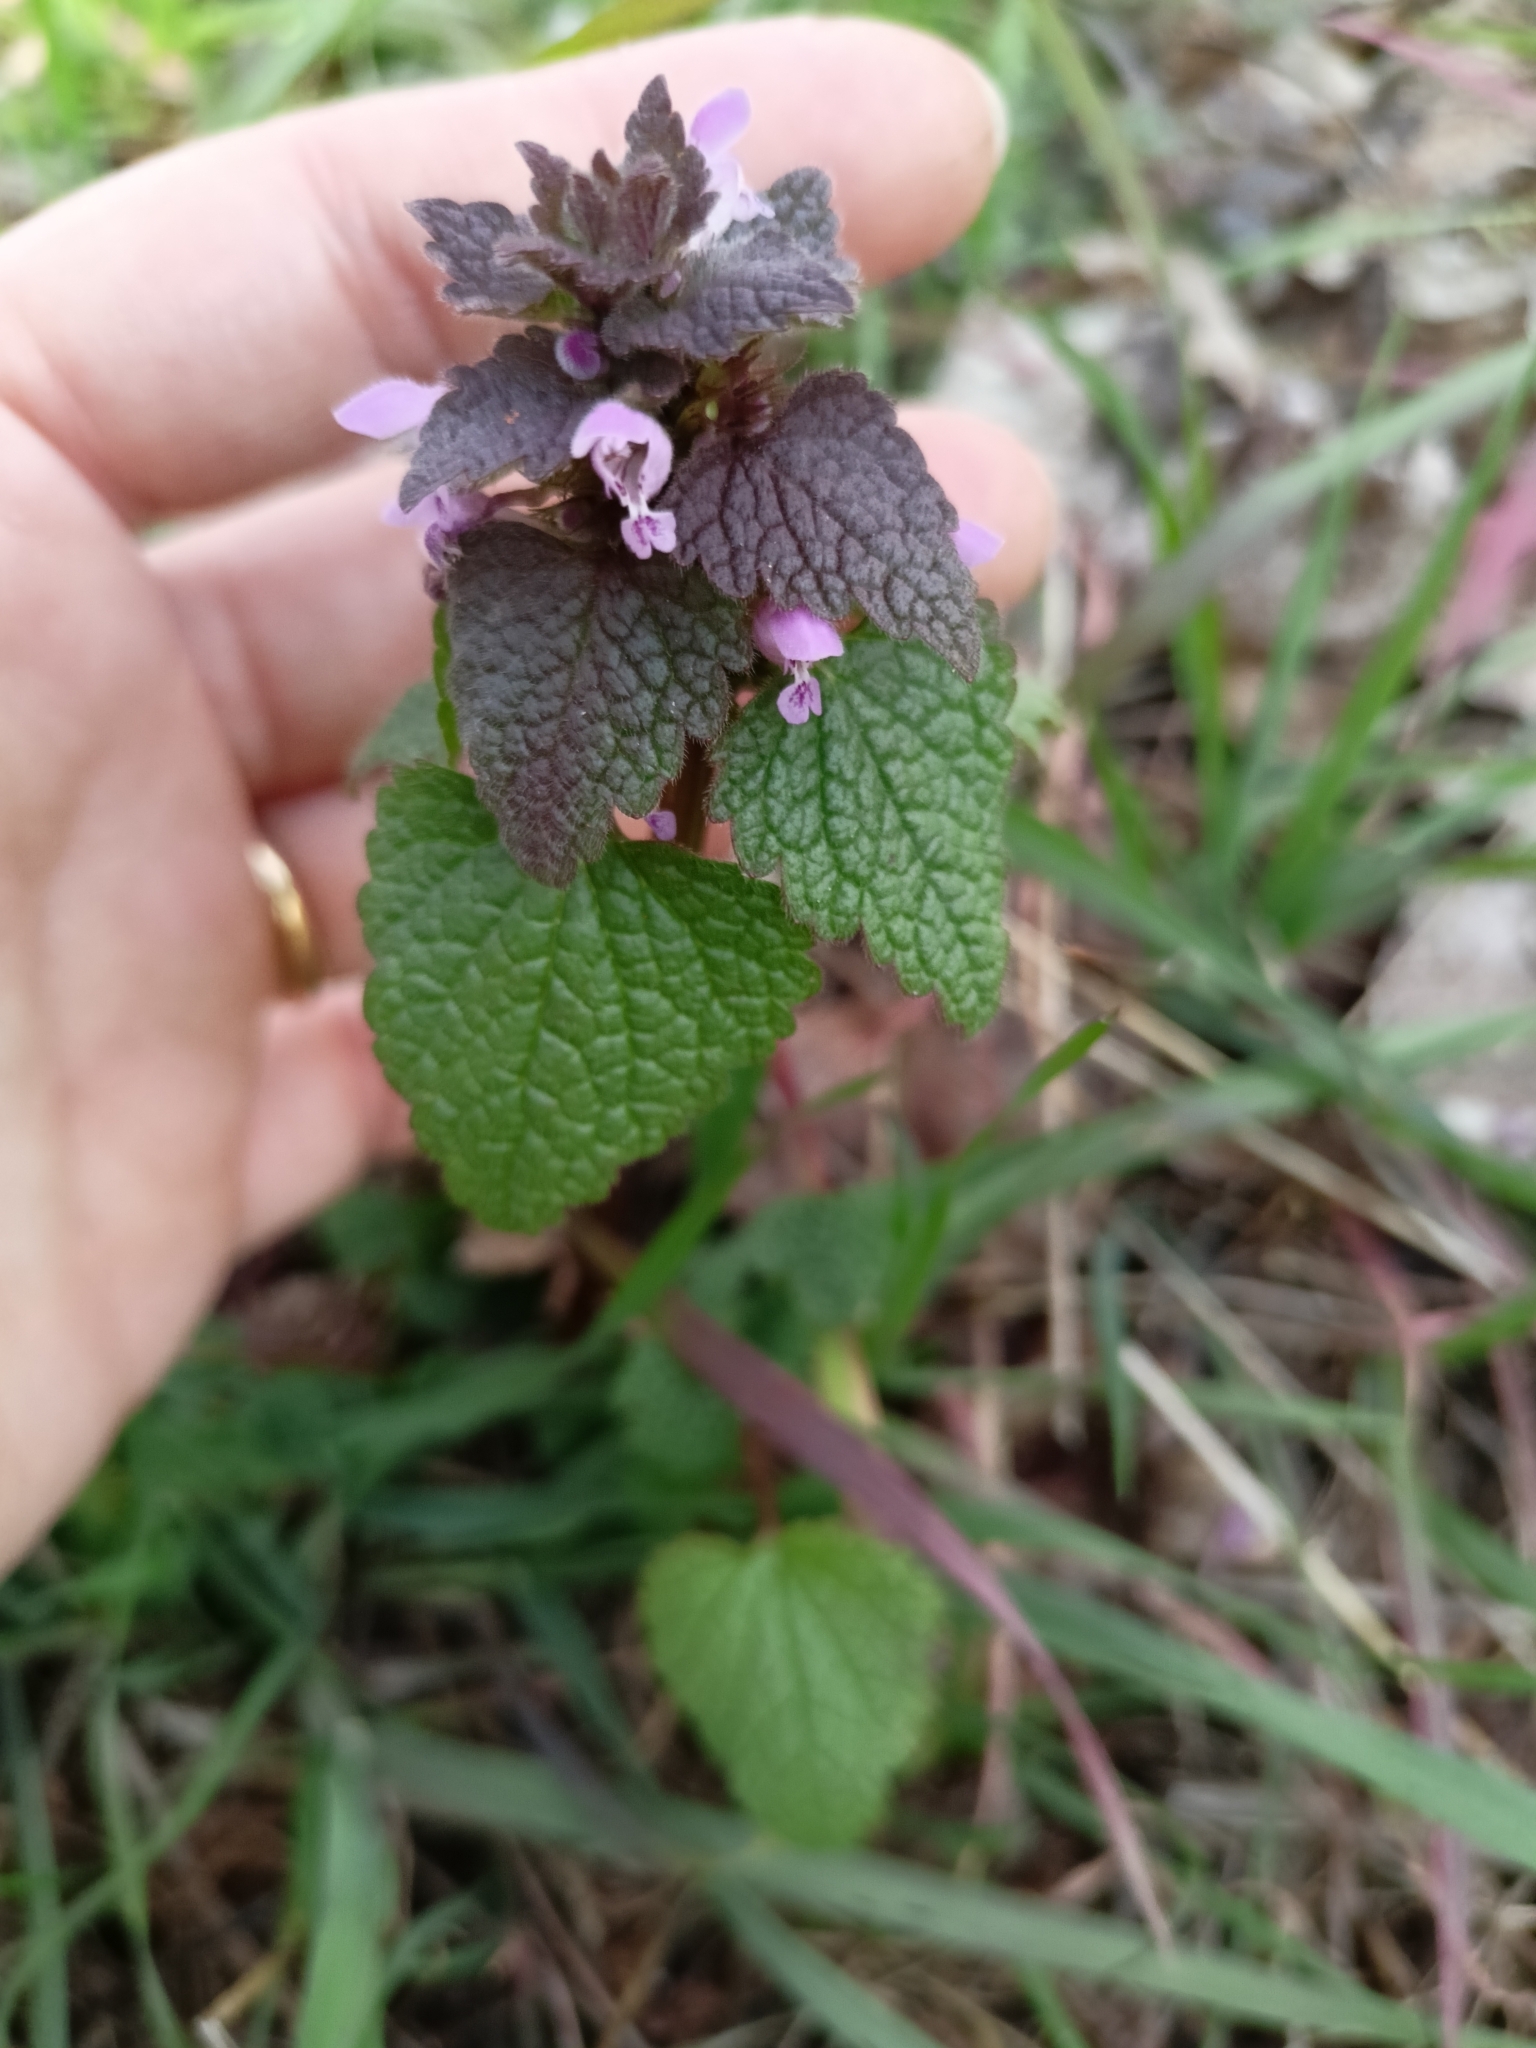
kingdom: Plantae
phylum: Tracheophyta
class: Magnoliopsida
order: Lamiales
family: Lamiaceae
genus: Lamium
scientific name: Lamium purpureum
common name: Red dead-nettle
